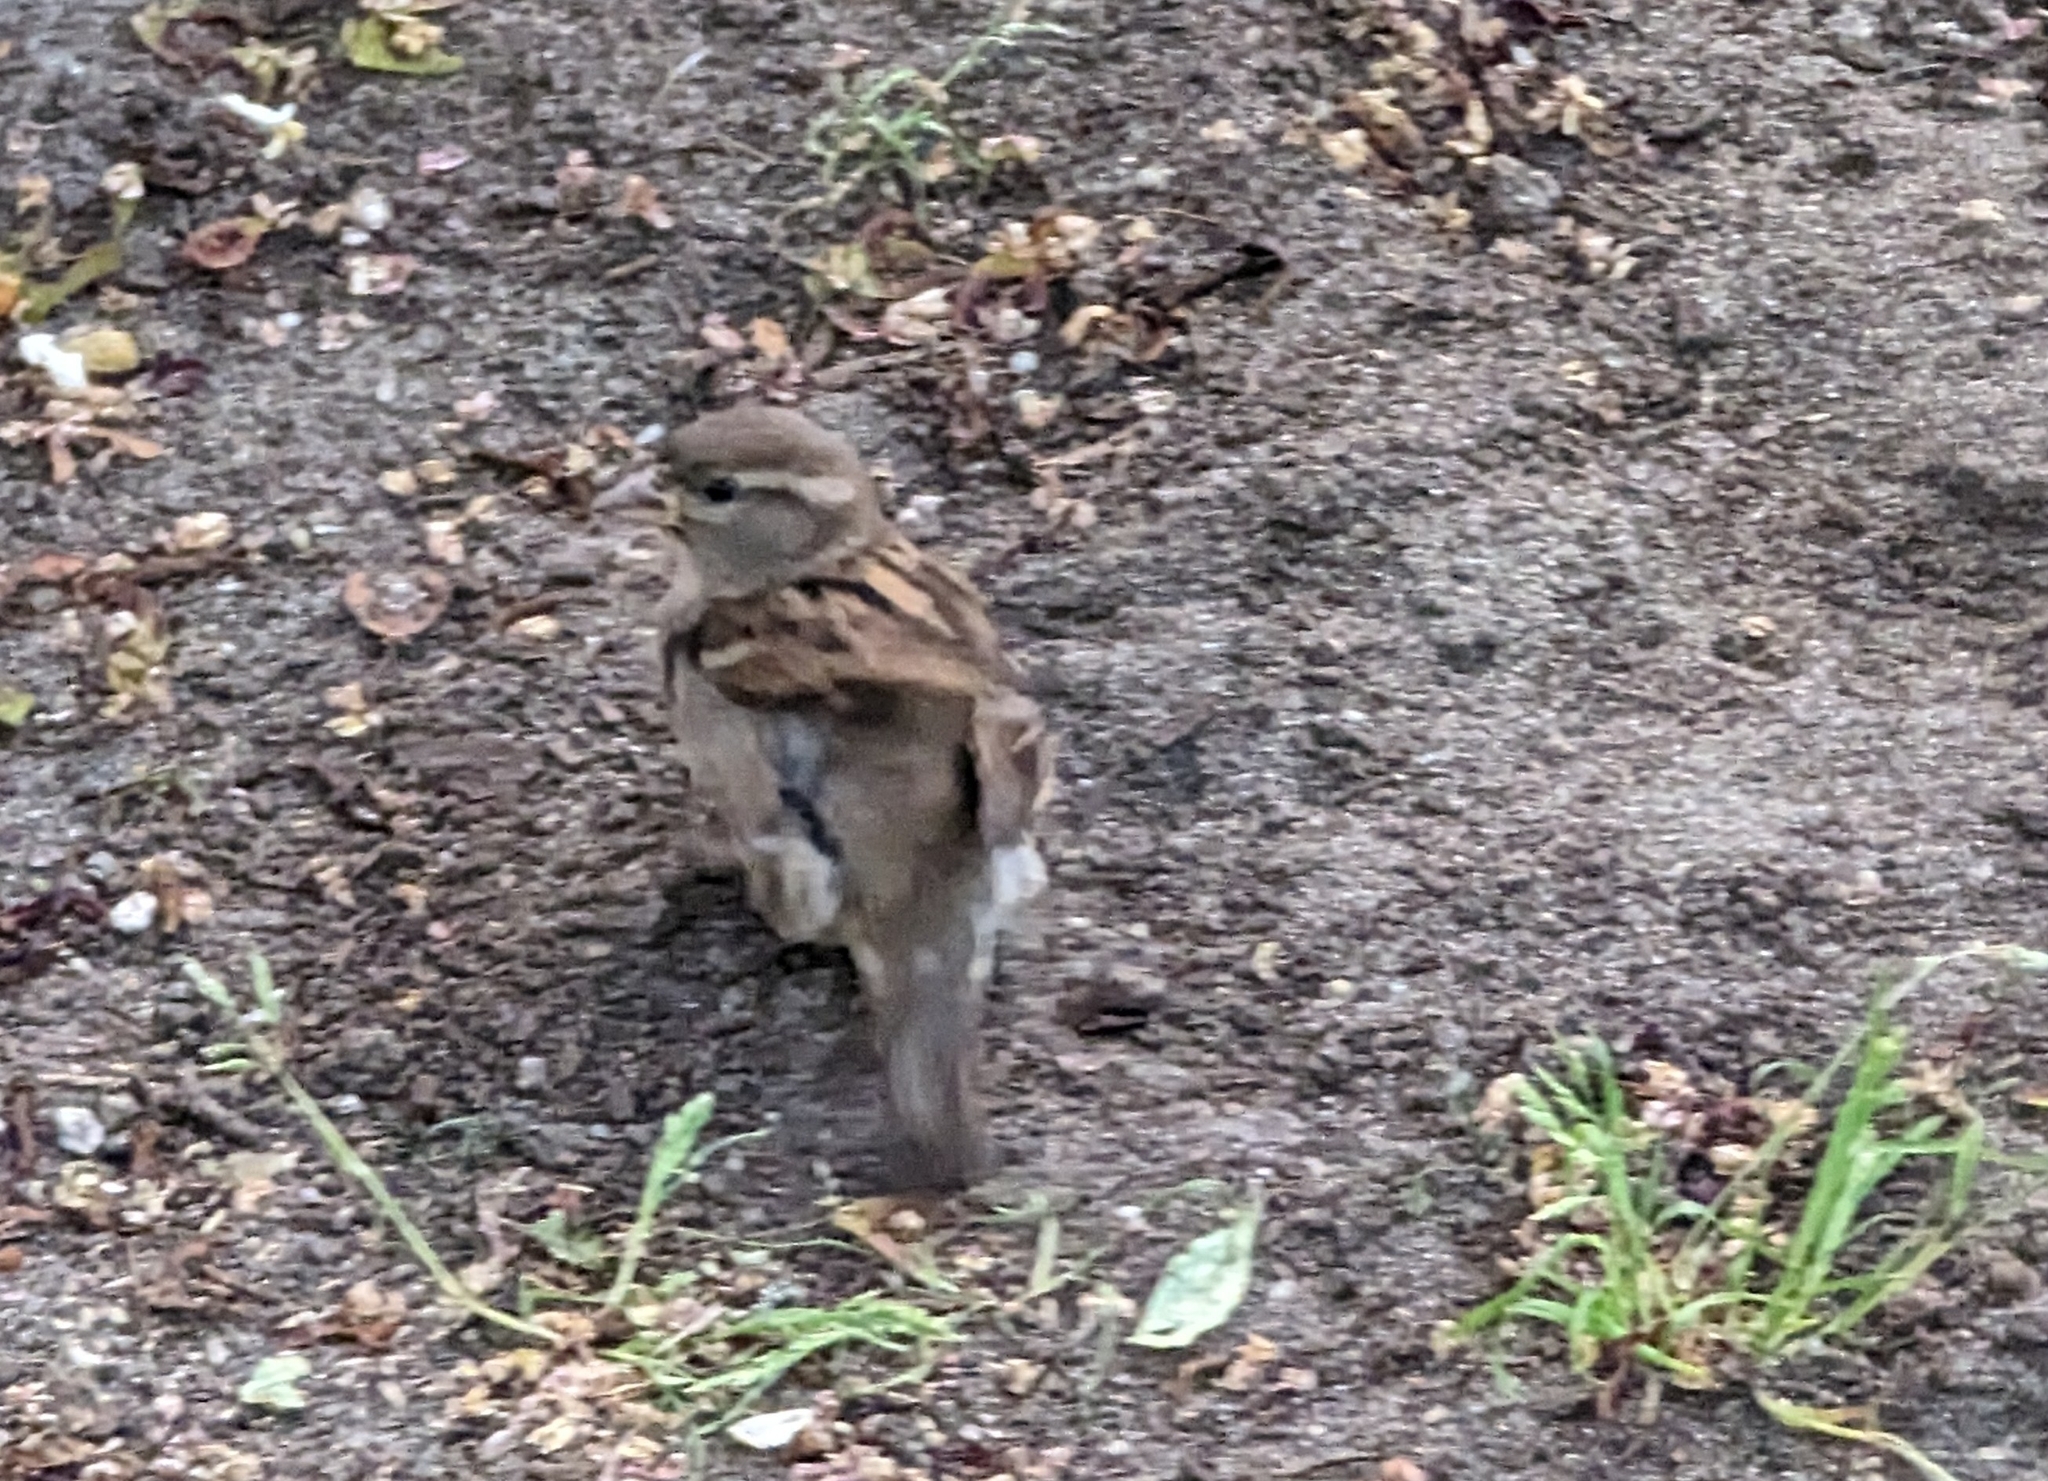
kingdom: Animalia
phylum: Chordata
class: Aves
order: Passeriformes
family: Passeridae
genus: Passer
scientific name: Passer domesticus
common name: House sparrow
